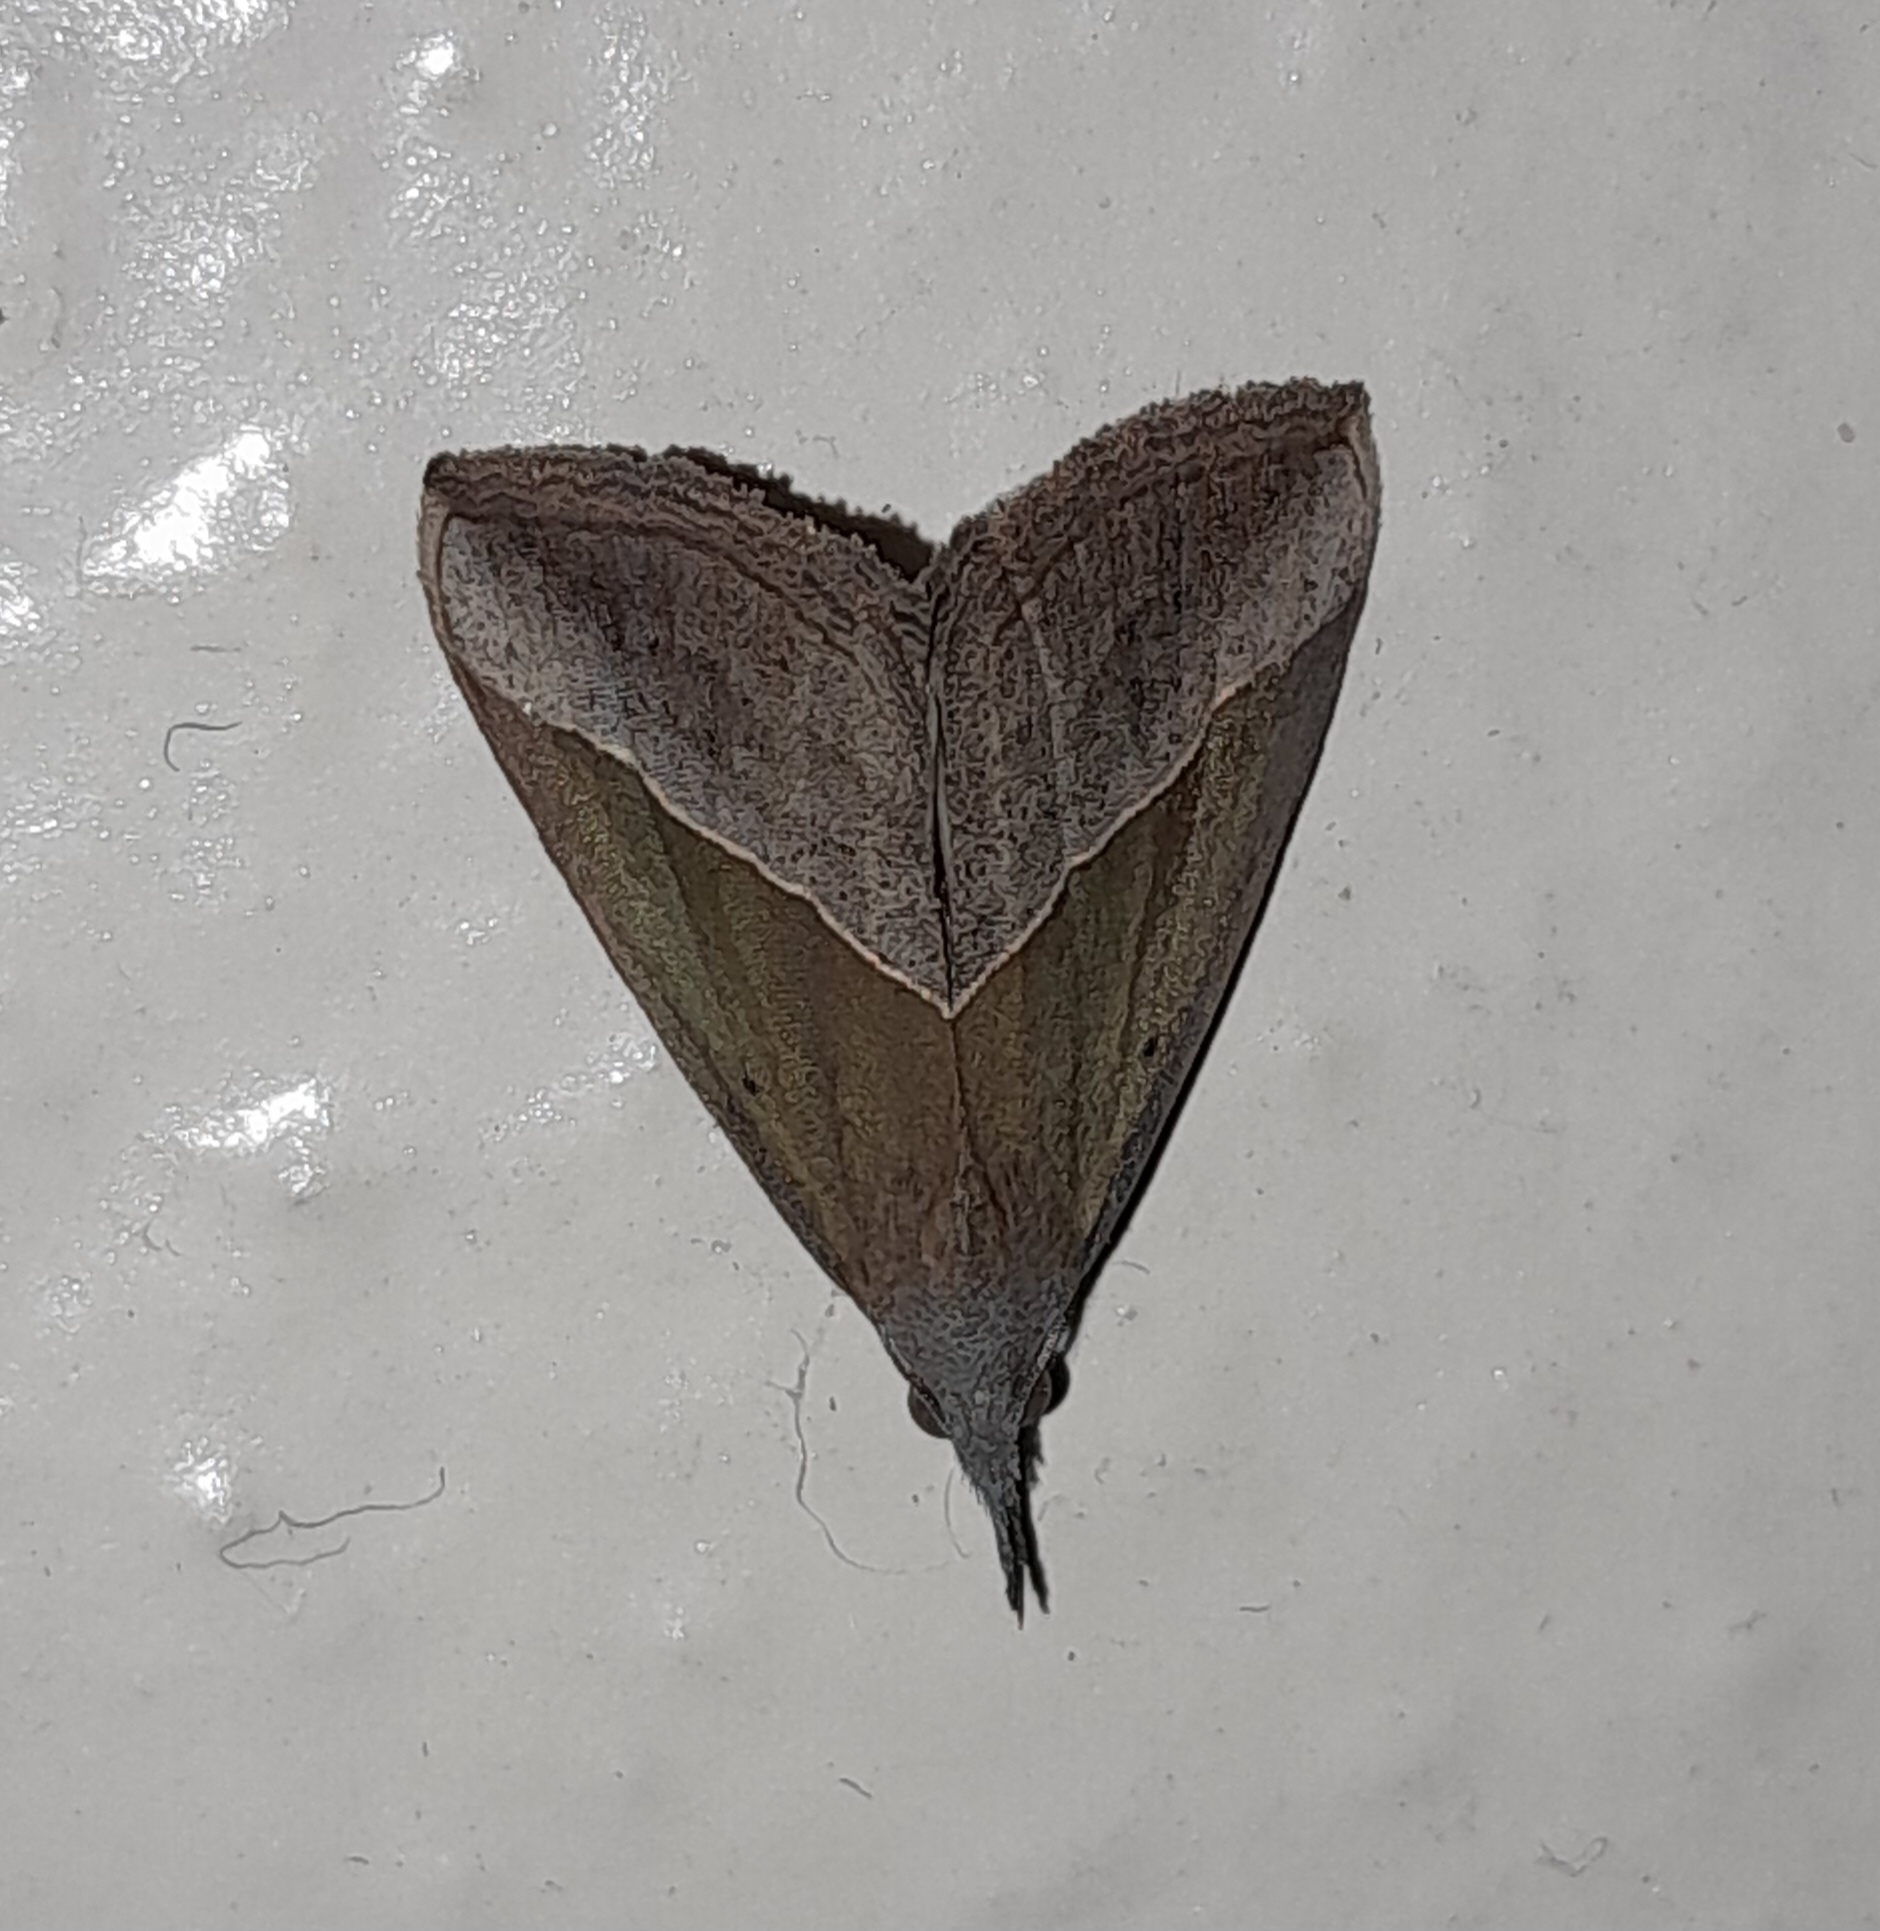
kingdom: Animalia
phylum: Arthropoda
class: Insecta
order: Lepidoptera
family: Erebidae
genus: Hypena
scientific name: Hypena lividalis
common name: Chevron snout
